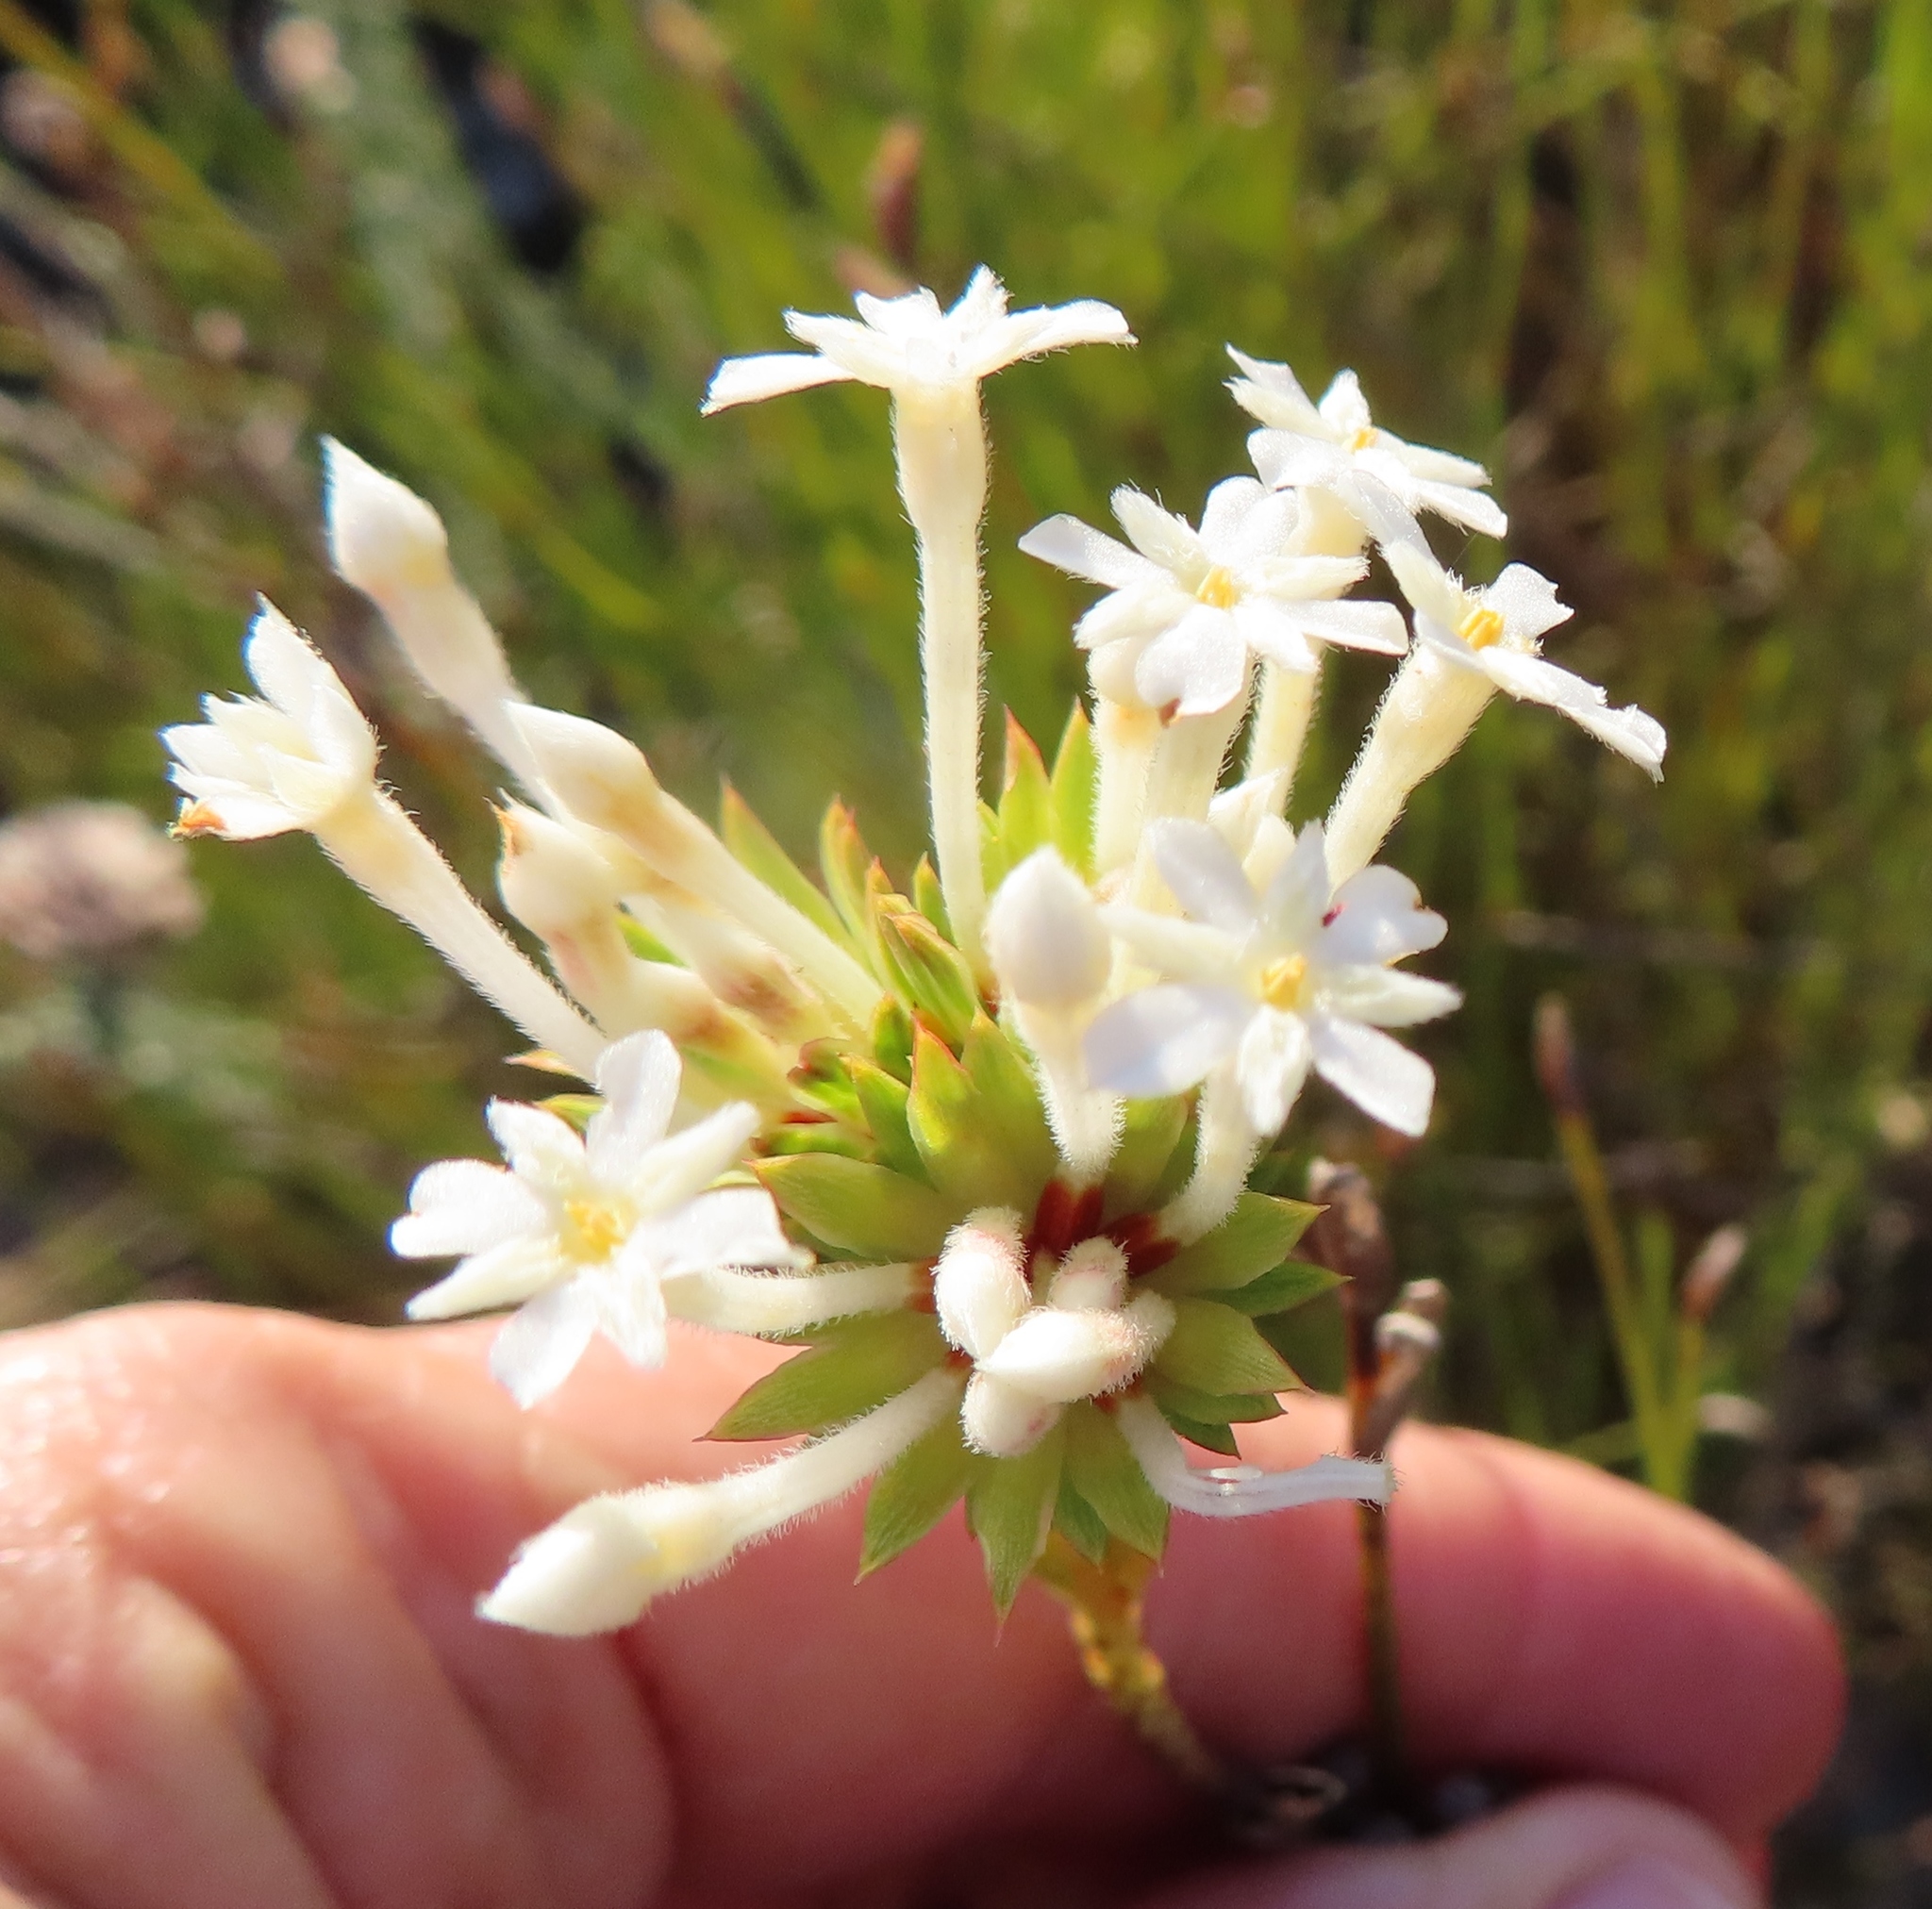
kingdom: Plantae
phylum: Tracheophyta
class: Magnoliopsida
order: Malvales
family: Thymelaeaceae
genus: Gnidia
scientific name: Gnidia pinifolia
